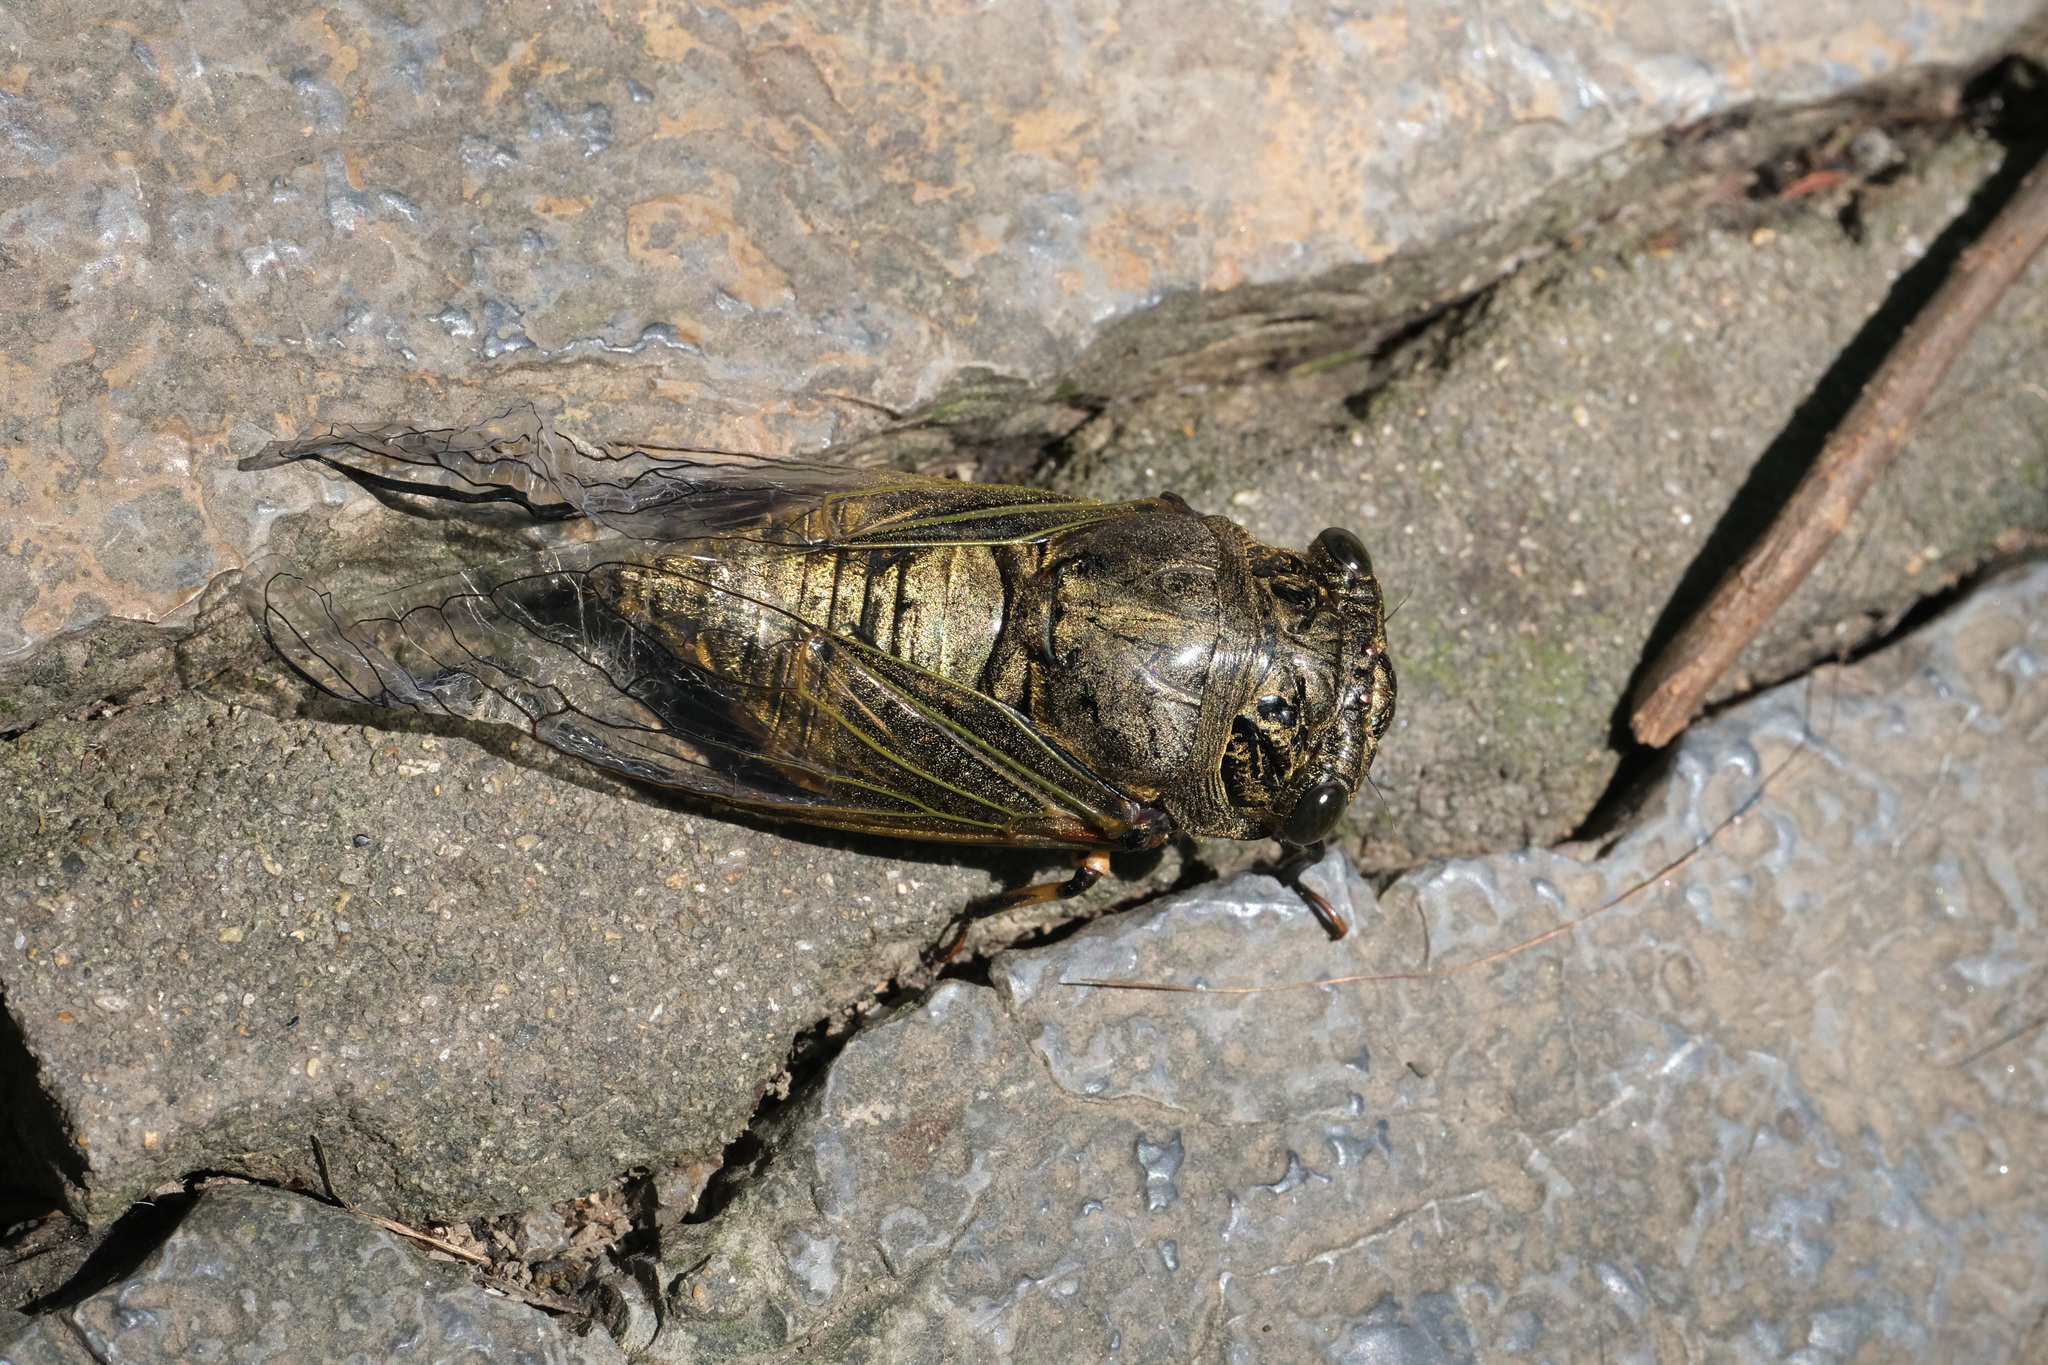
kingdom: Animalia
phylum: Arthropoda
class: Insecta
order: Hemiptera
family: Cicadidae
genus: Cryptotympana
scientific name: Cryptotympana atrata
